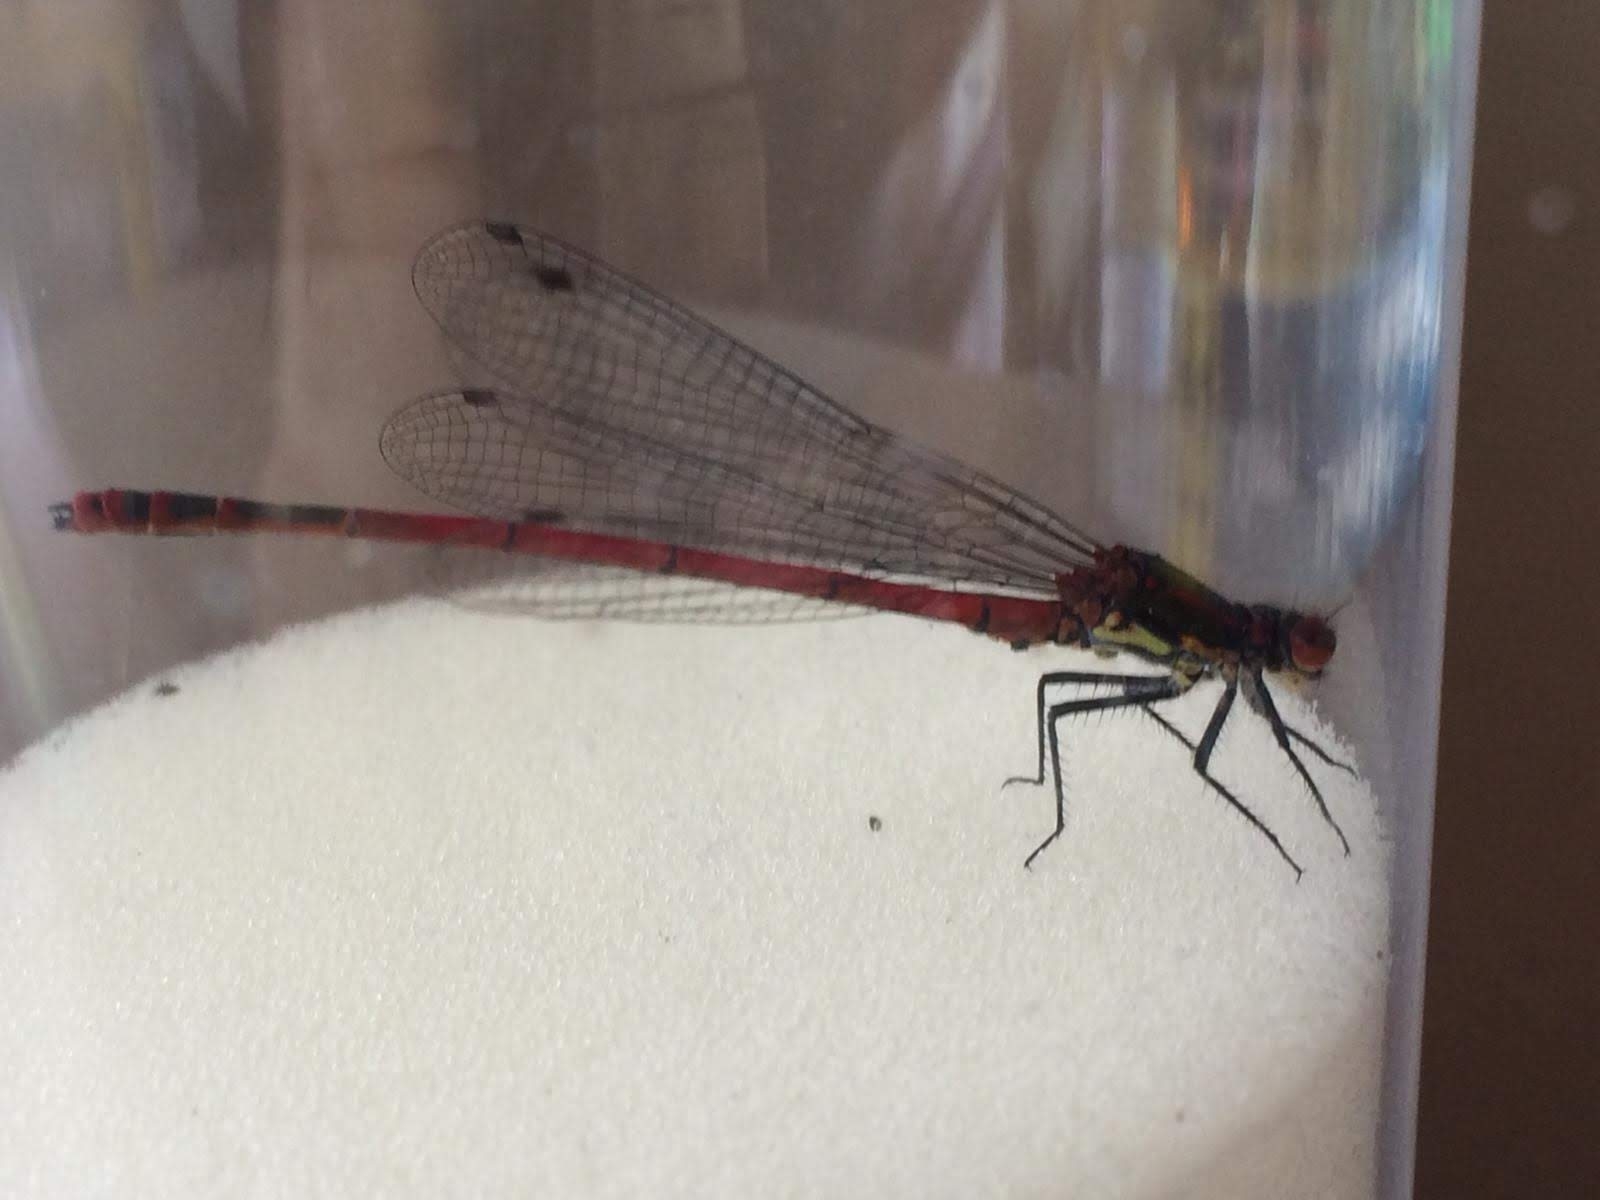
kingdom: Animalia
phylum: Arthropoda
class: Insecta
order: Odonata
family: Coenagrionidae
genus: Pyrrhosoma
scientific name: Pyrrhosoma nymphula
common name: Large red damsel
